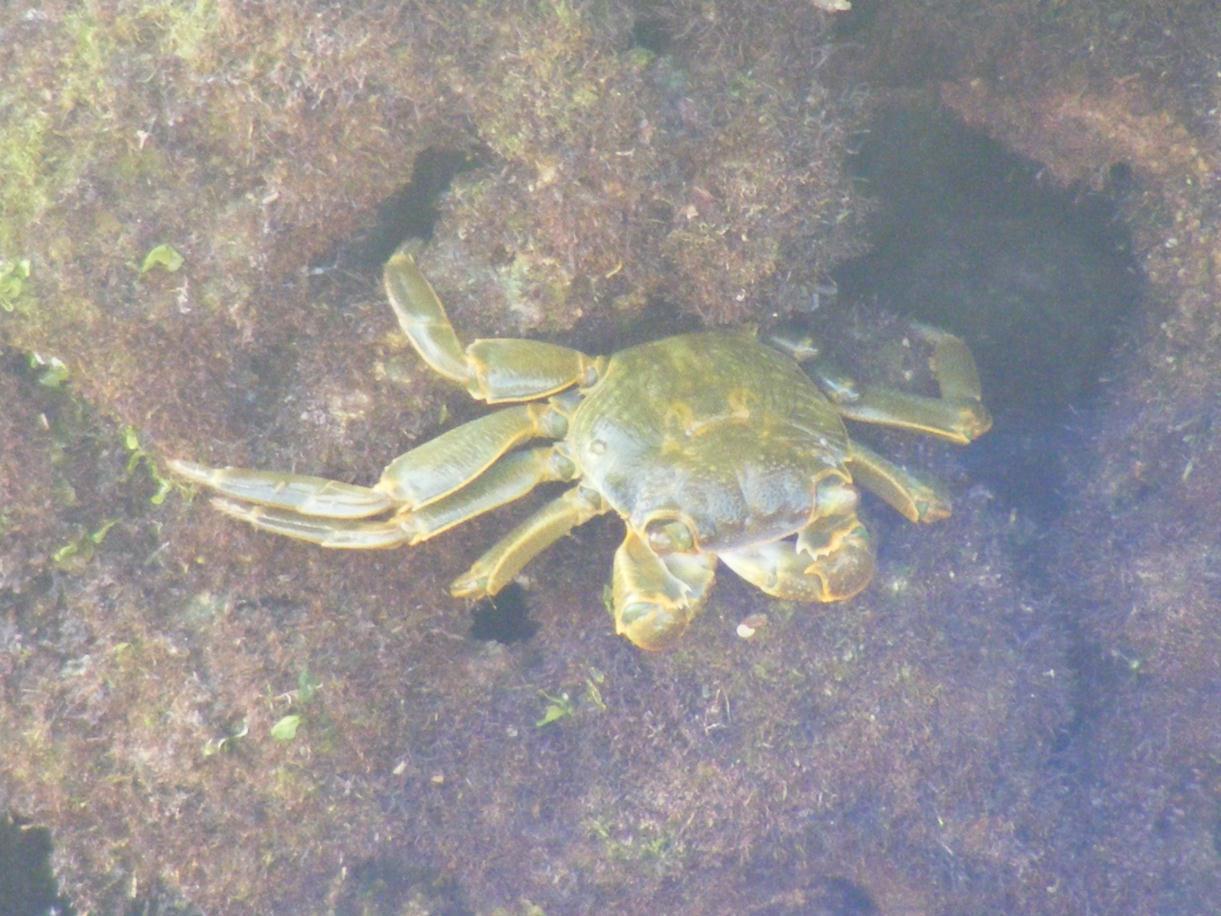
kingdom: Animalia
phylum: Arthropoda
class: Malacostraca
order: Decapoda
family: Grapsidae
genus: Grapsus
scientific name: Grapsus fourmanoiri
